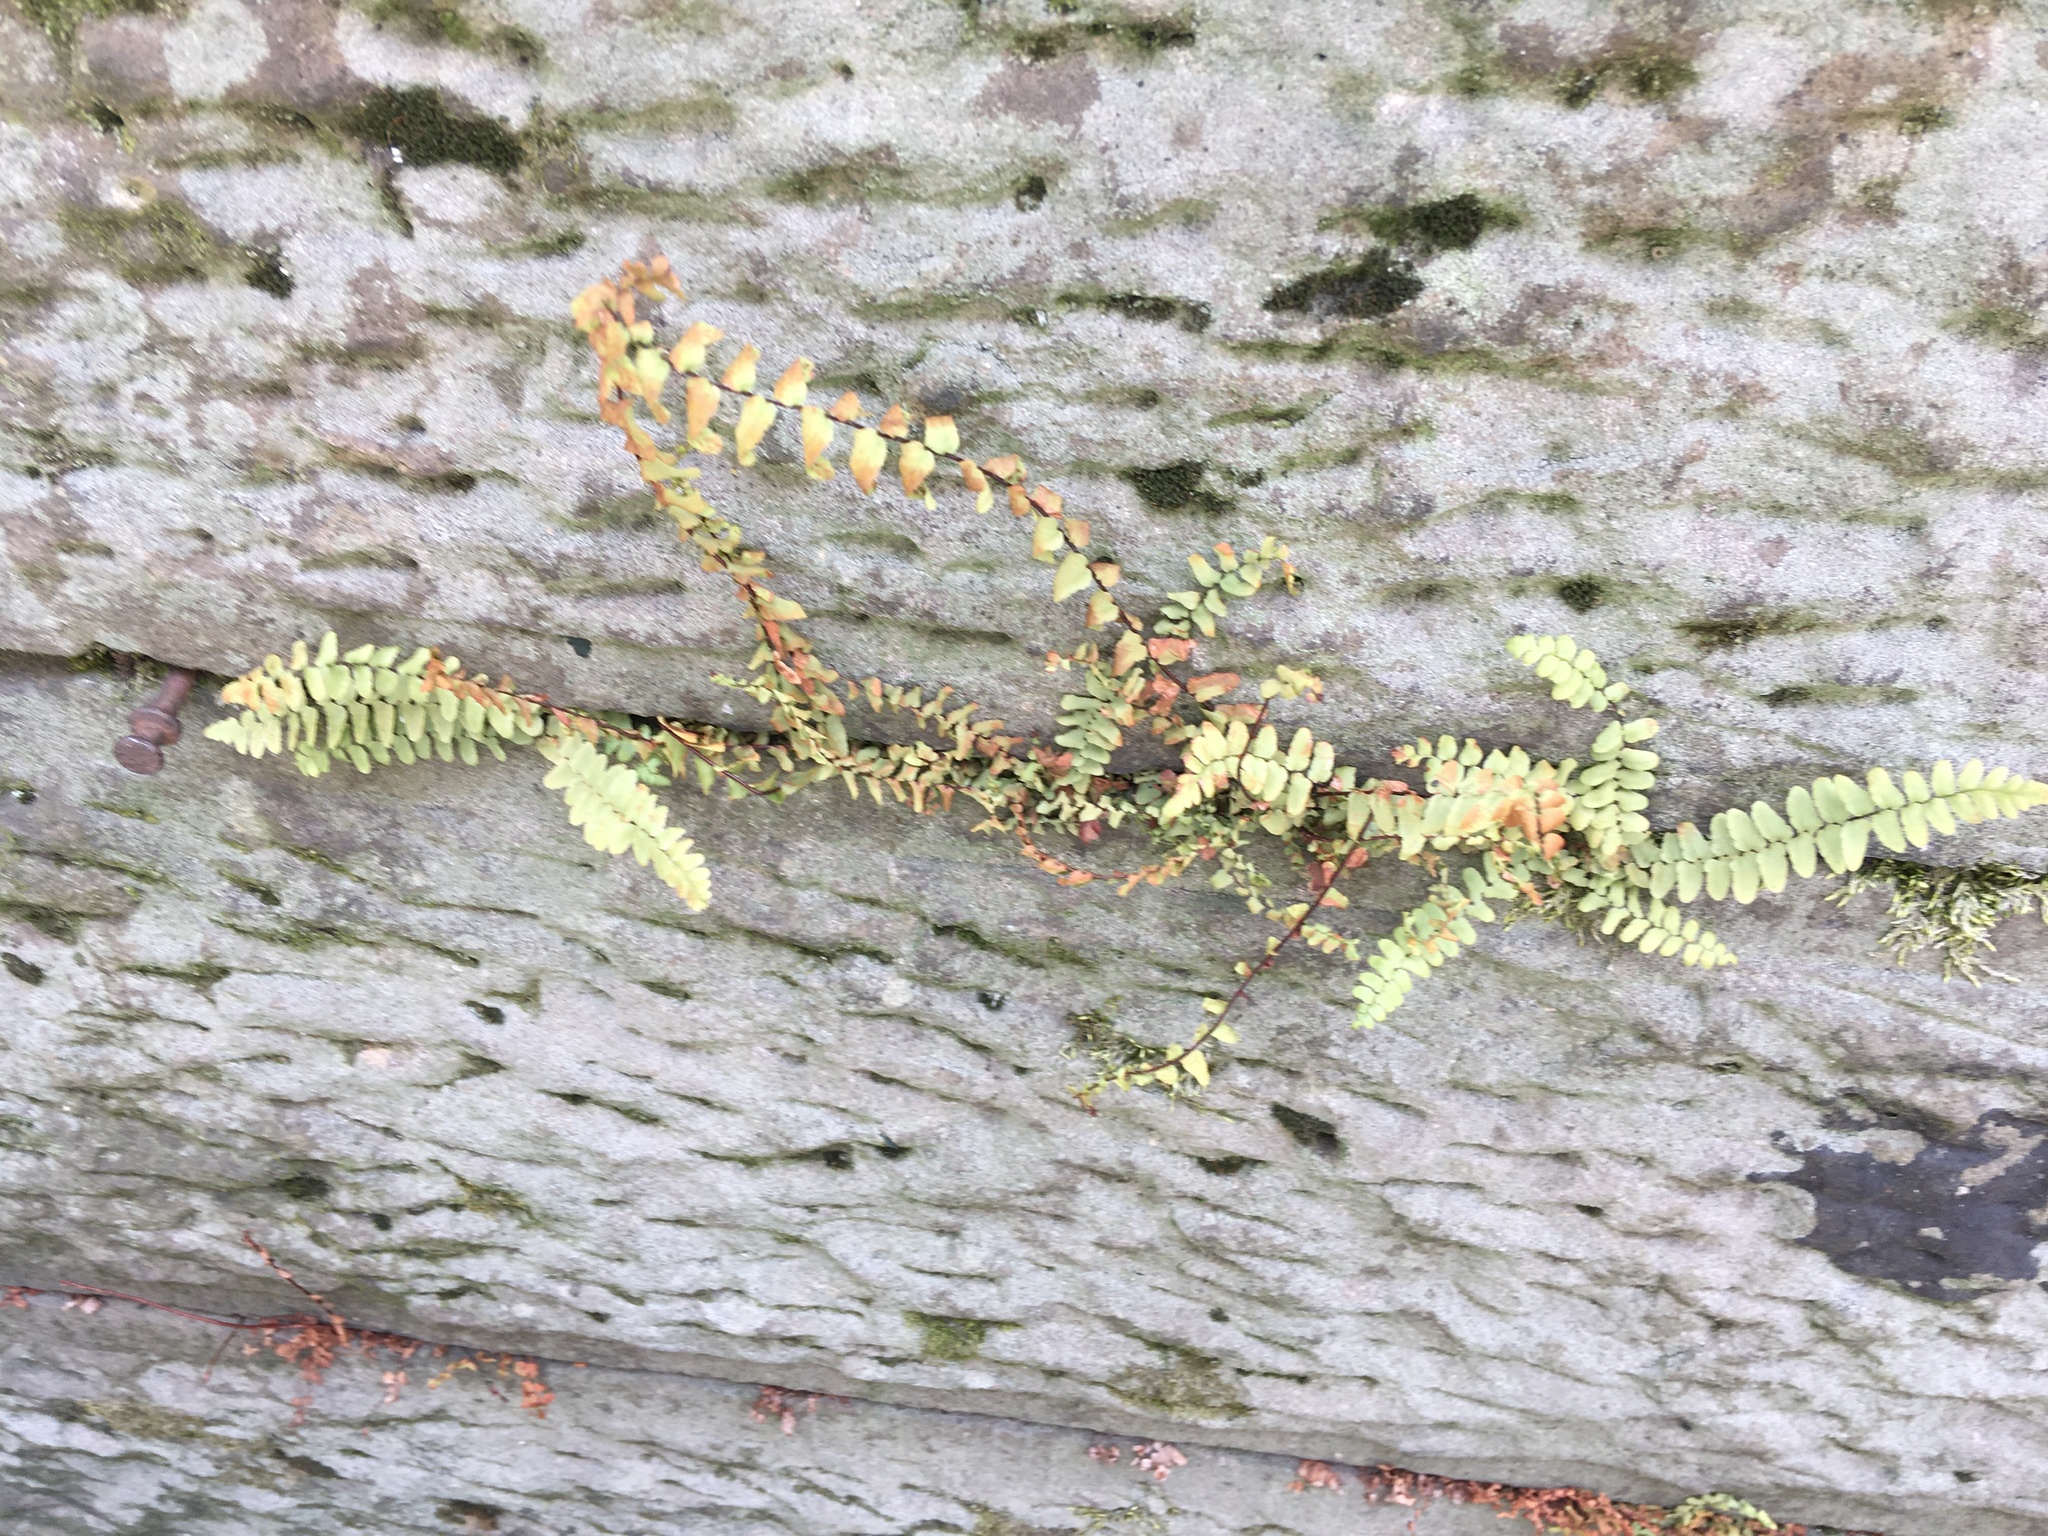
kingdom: Plantae
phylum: Tracheophyta
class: Polypodiopsida
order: Polypodiales
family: Aspleniaceae
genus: Asplenium
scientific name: Asplenium platyneuron
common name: Ebony spleenwort
